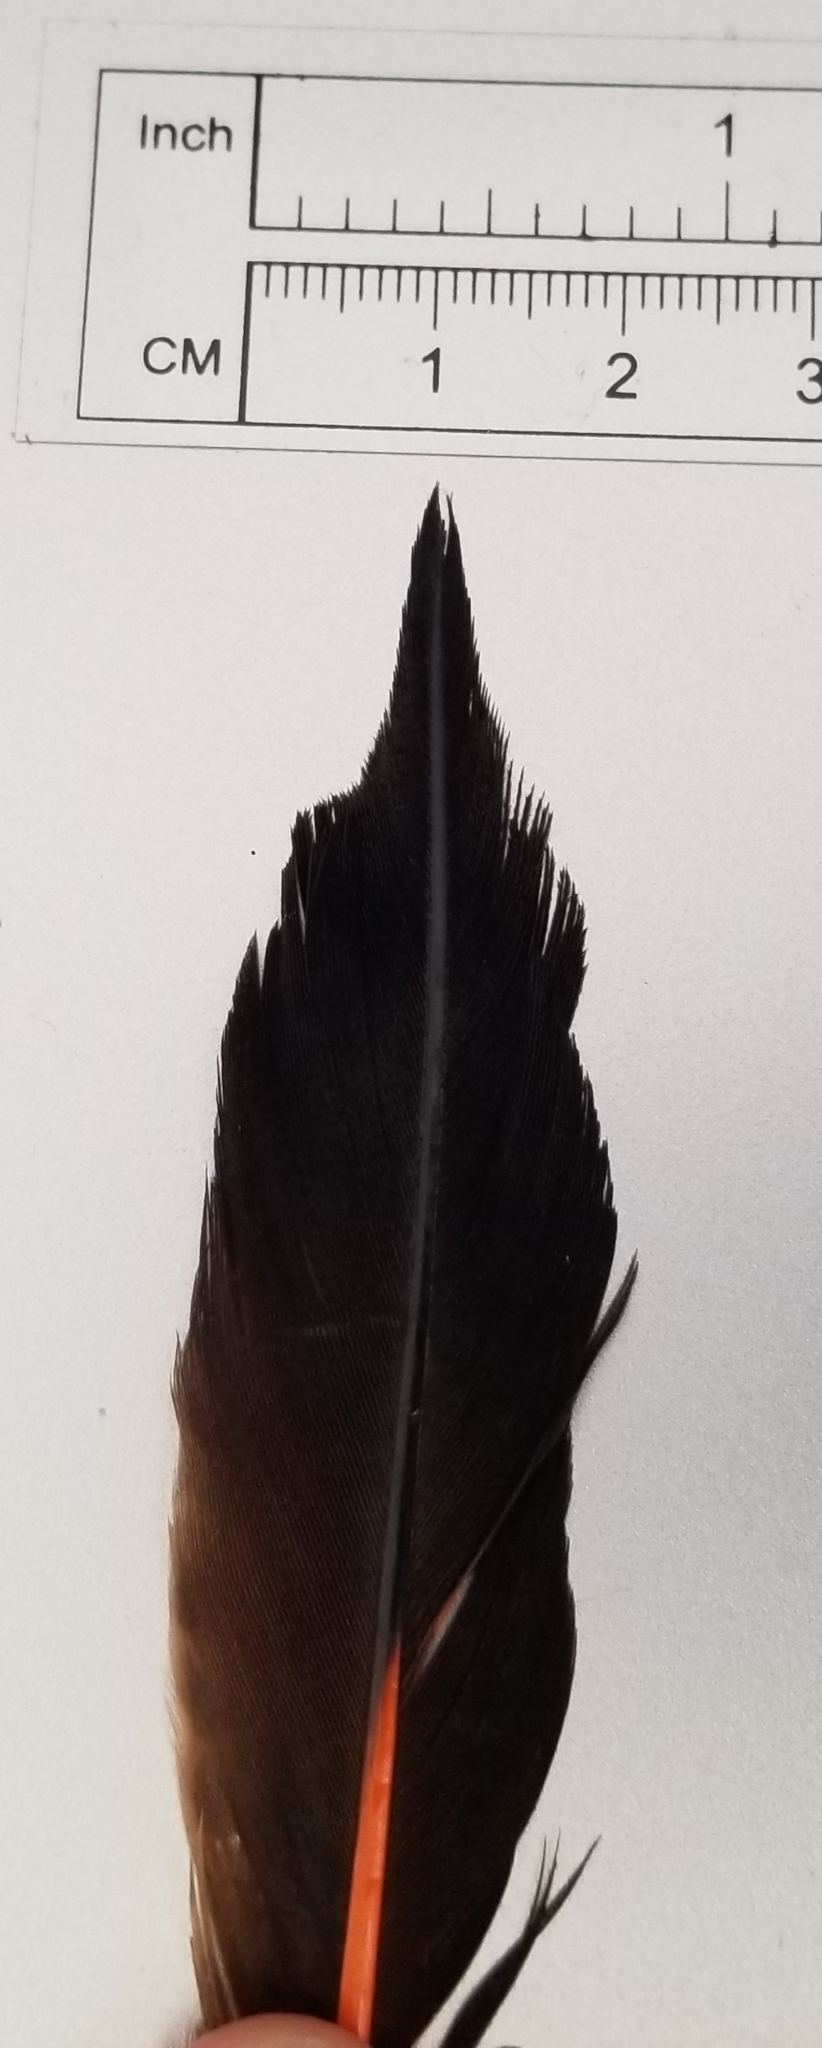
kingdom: Animalia
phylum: Chordata
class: Aves
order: Piciformes
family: Picidae
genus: Colaptes
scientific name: Colaptes auratus
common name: Northern flicker
